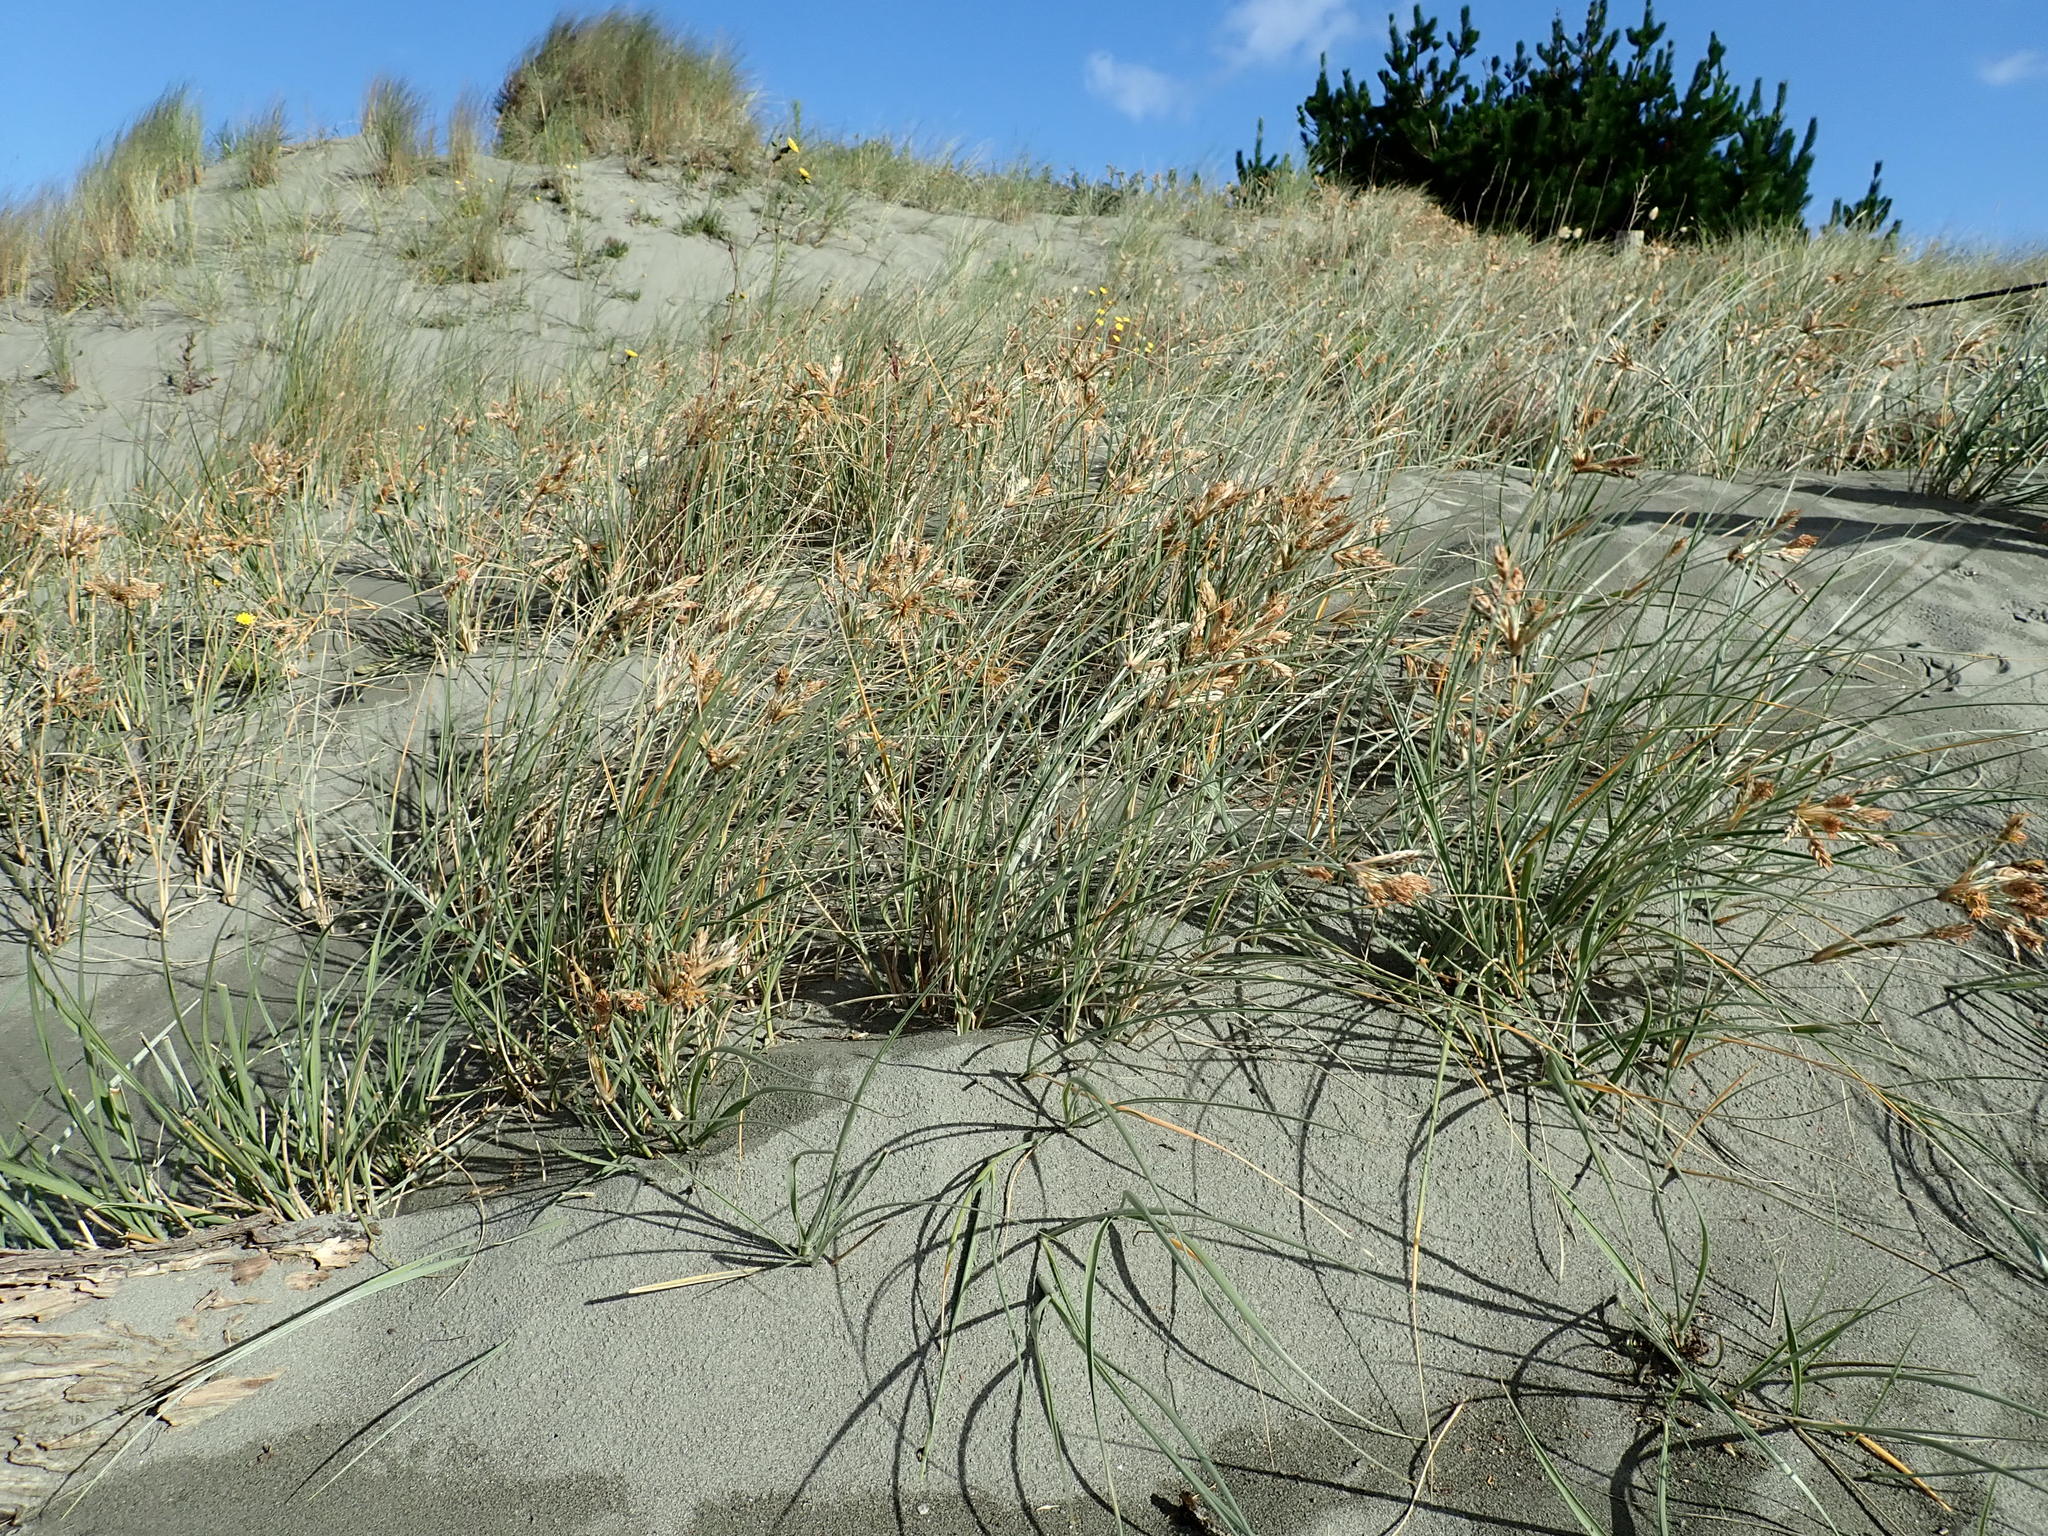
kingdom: Plantae
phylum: Tracheophyta
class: Liliopsida
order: Poales
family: Poaceae
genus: Spinifex
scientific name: Spinifex sericeus
